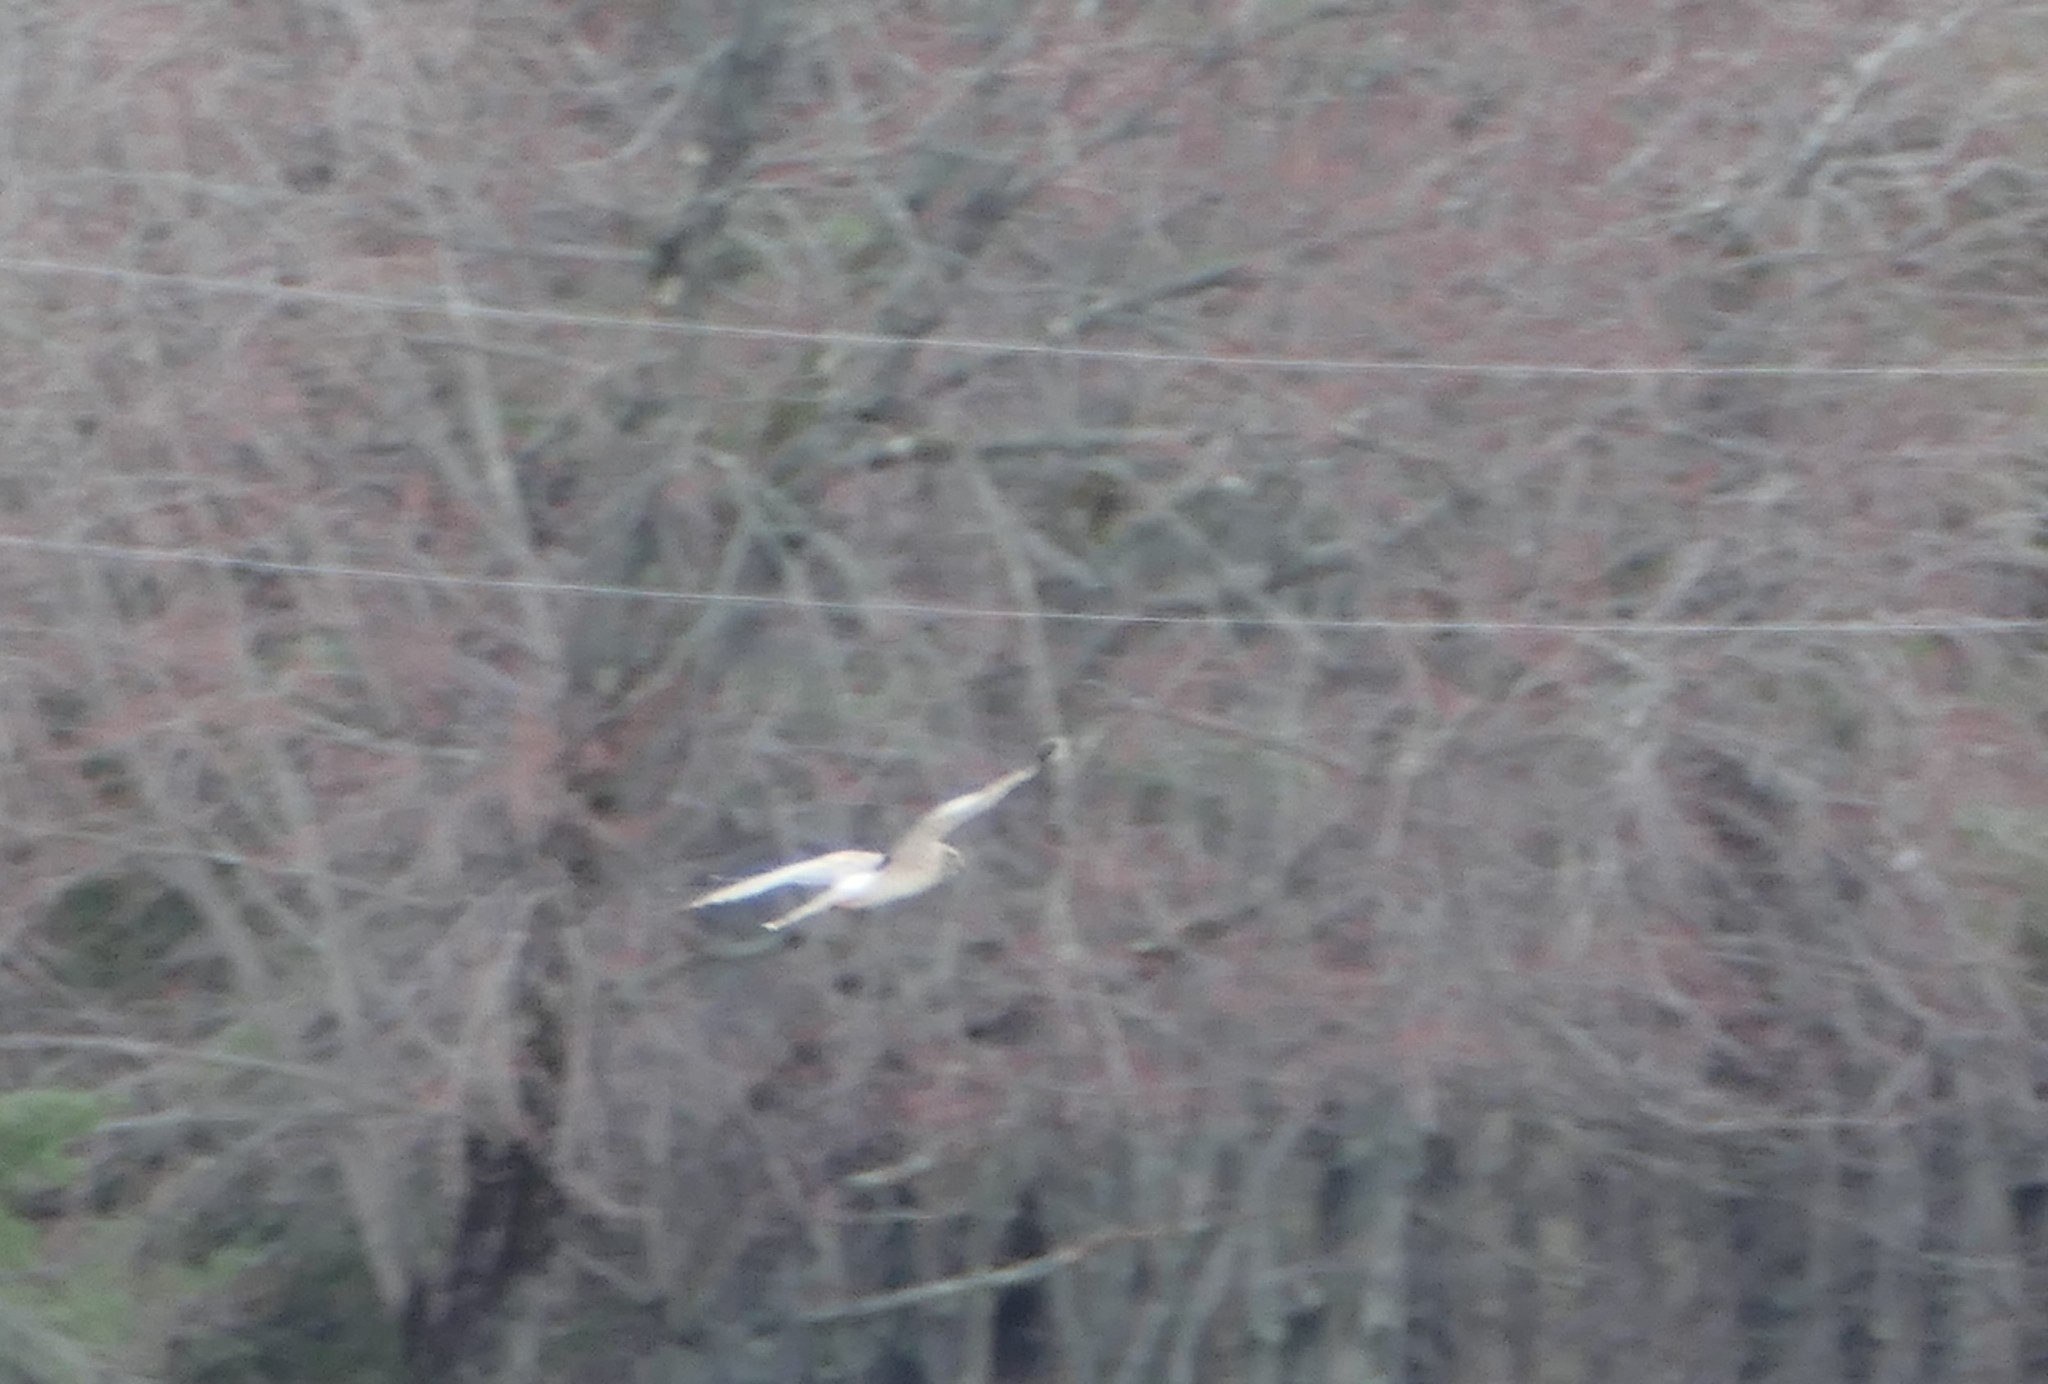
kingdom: Animalia
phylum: Chordata
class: Aves
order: Accipitriformes
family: Accipitridae
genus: Circus
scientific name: Circus cyaneus
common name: Hen harrier
